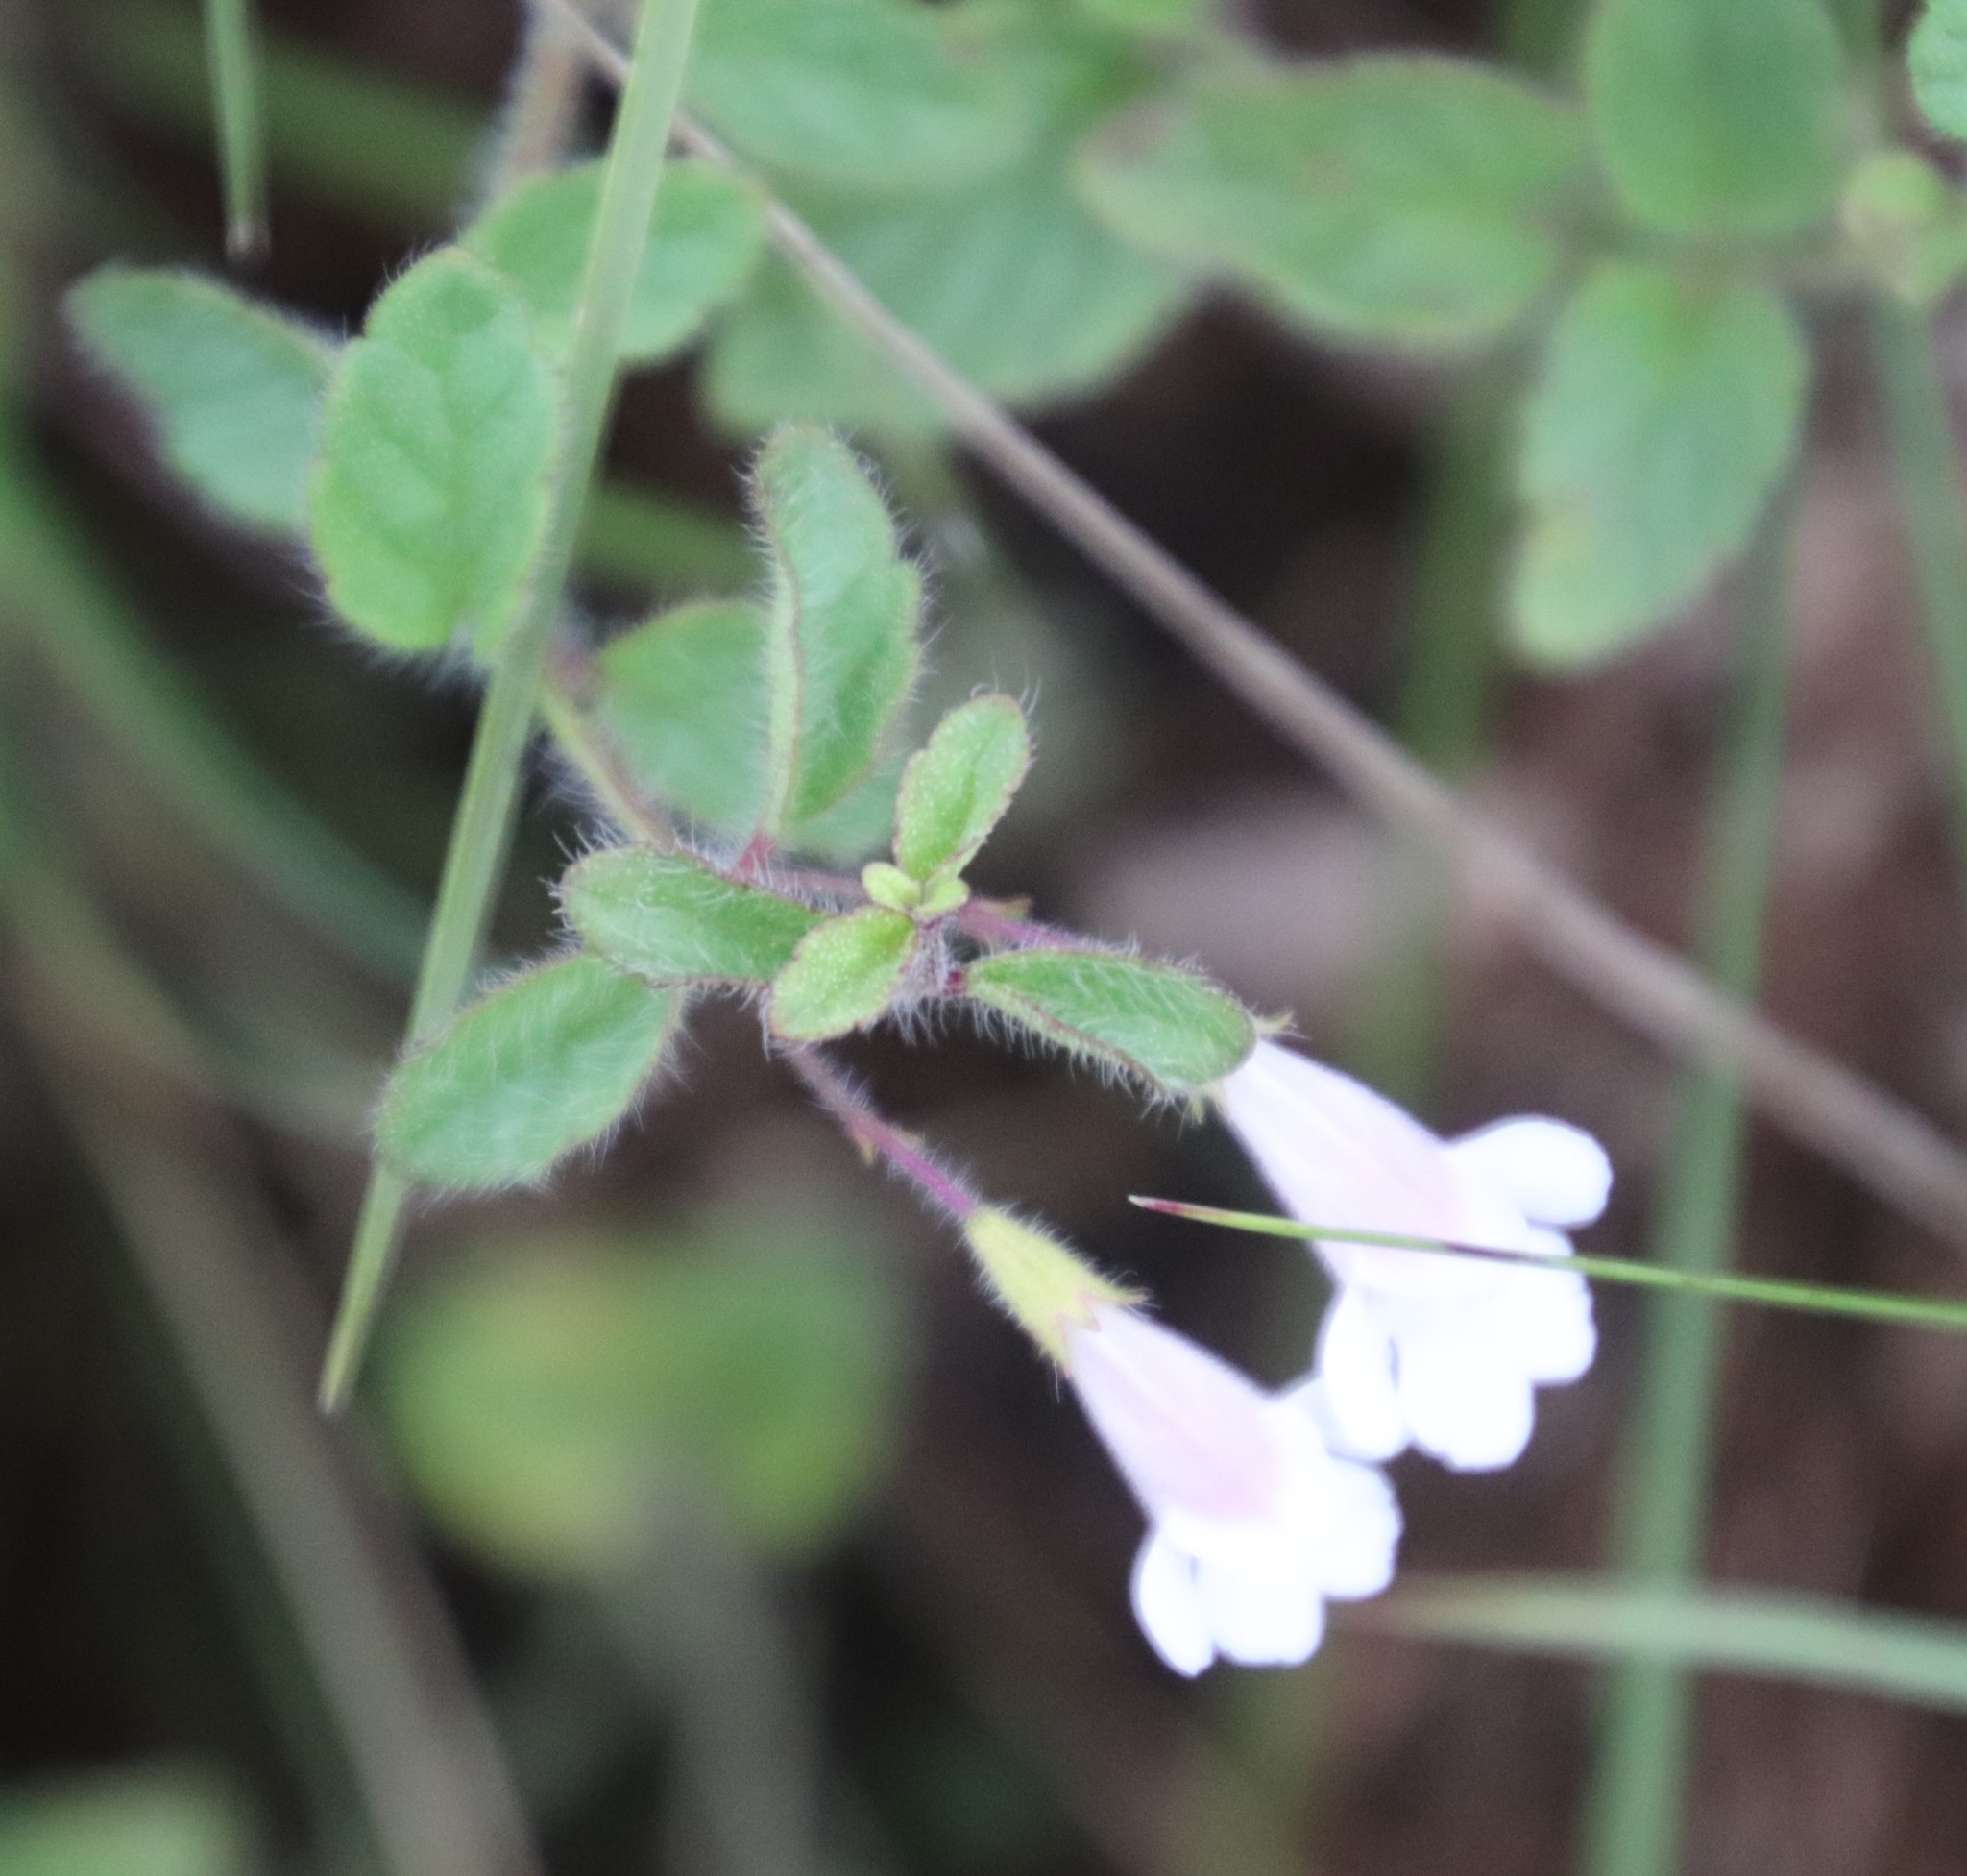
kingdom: Plantae
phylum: Tracheophyta
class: Magnoliopsida
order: Lamiales
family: Lamiaceae
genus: Killickia
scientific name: Killickia pilosa
